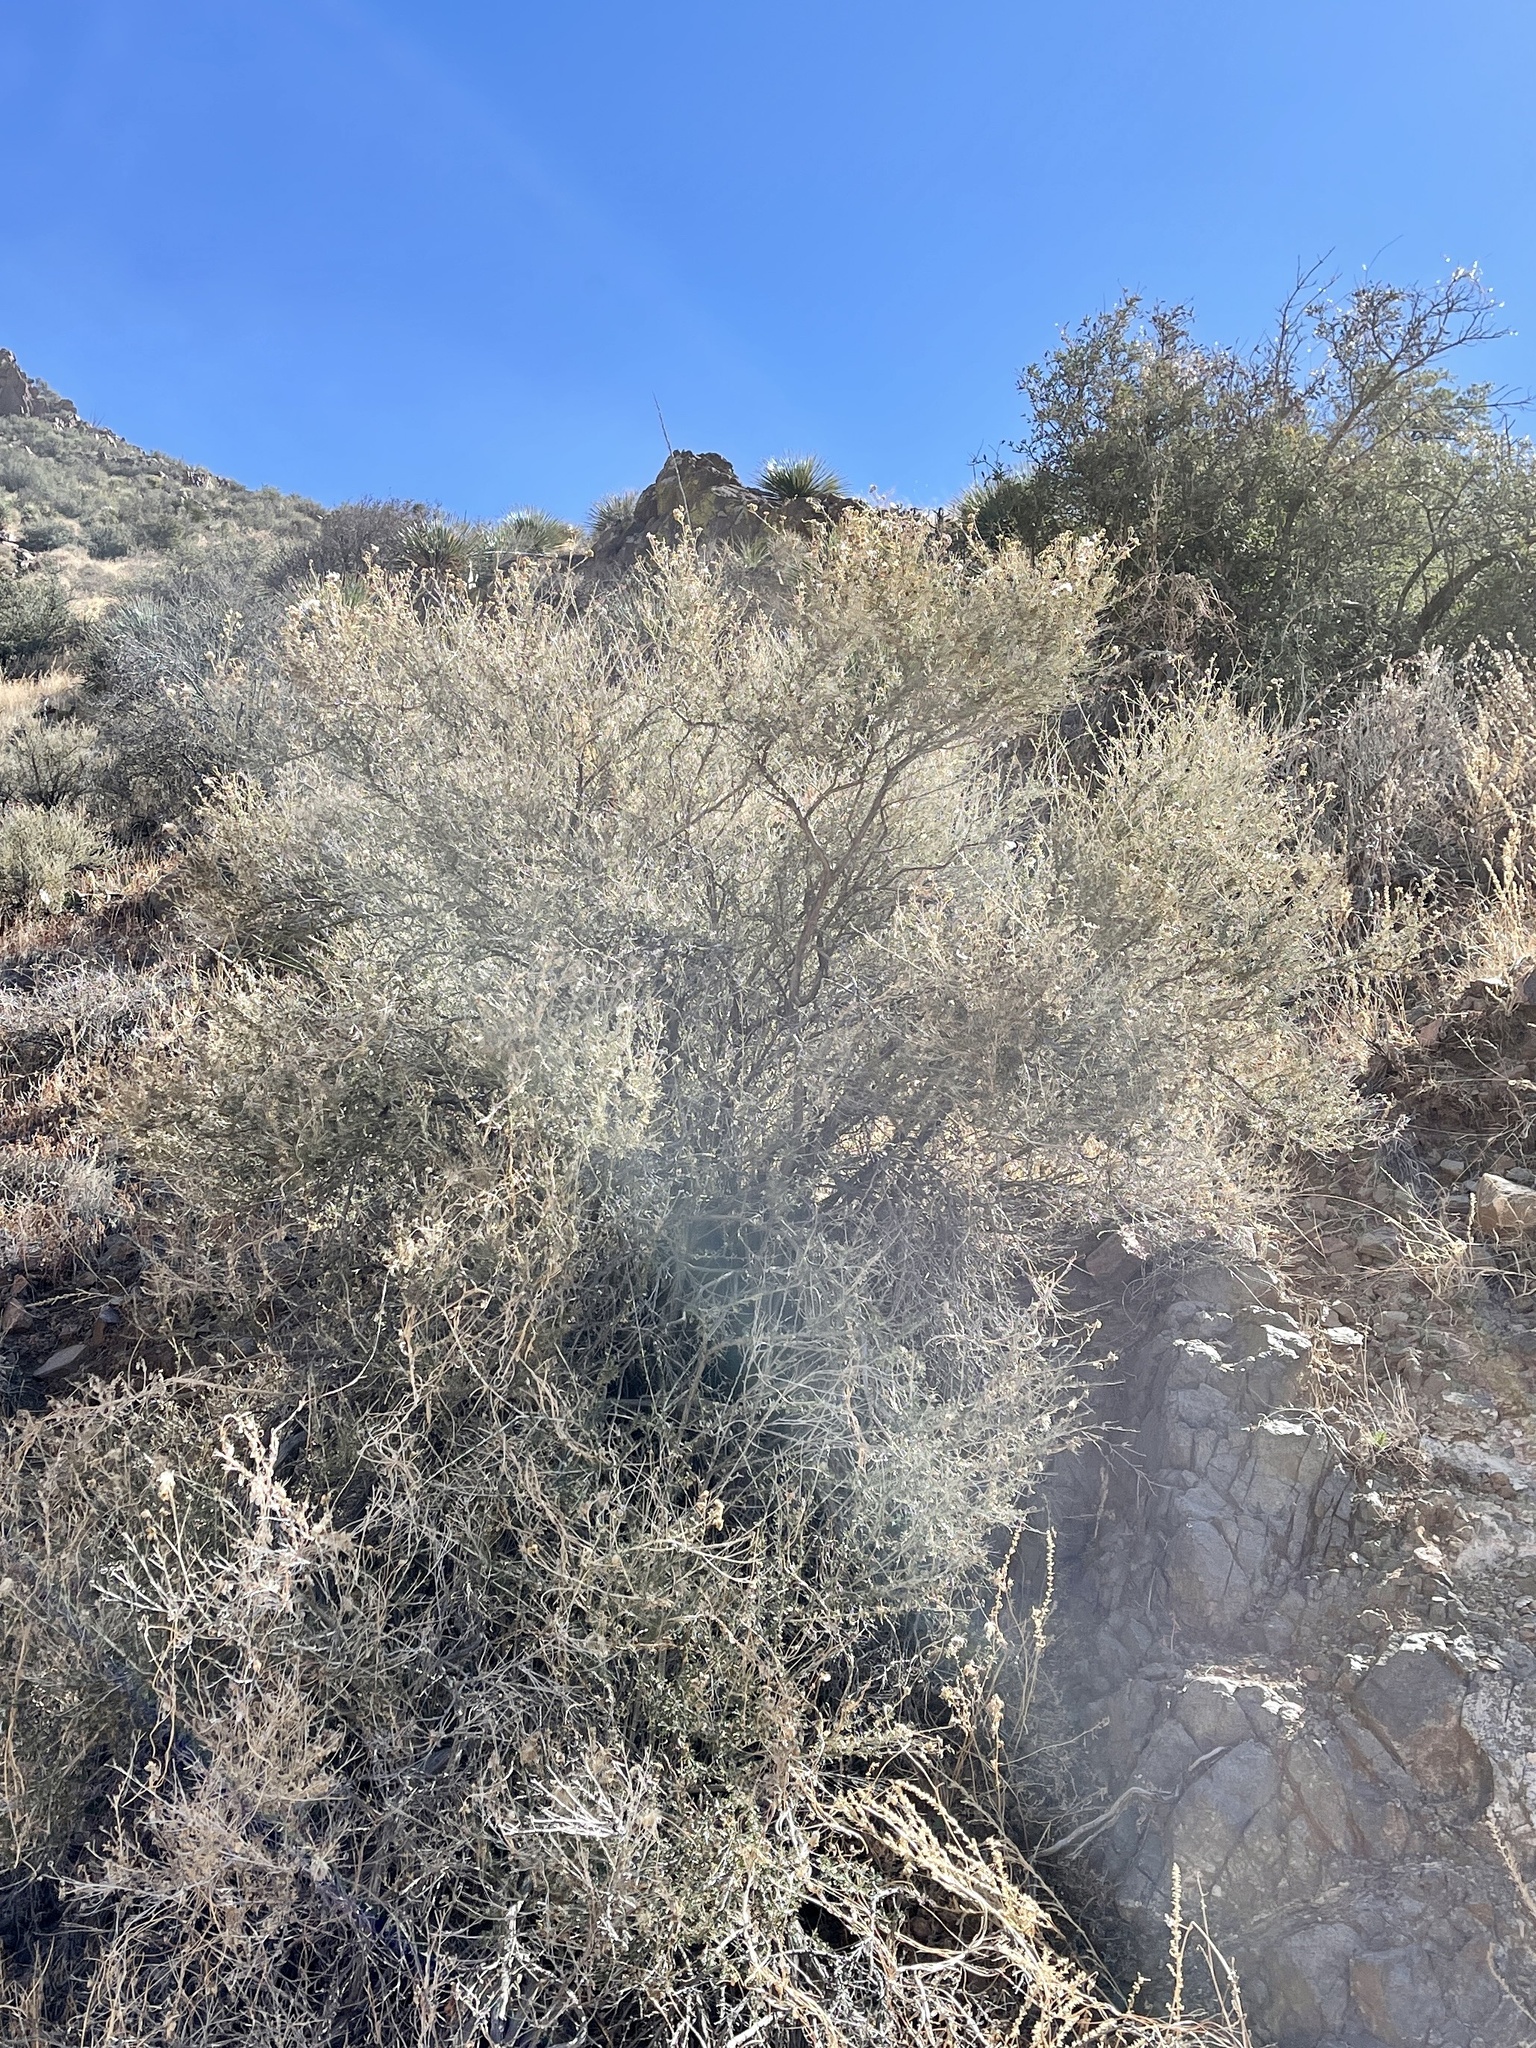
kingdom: Plantae
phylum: Tracheophyta
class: Magnoliopsida
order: Caryophyllales
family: Amaranthaceae
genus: Atriplex
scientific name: Atriplex canescens
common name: Four-wing saltbush
